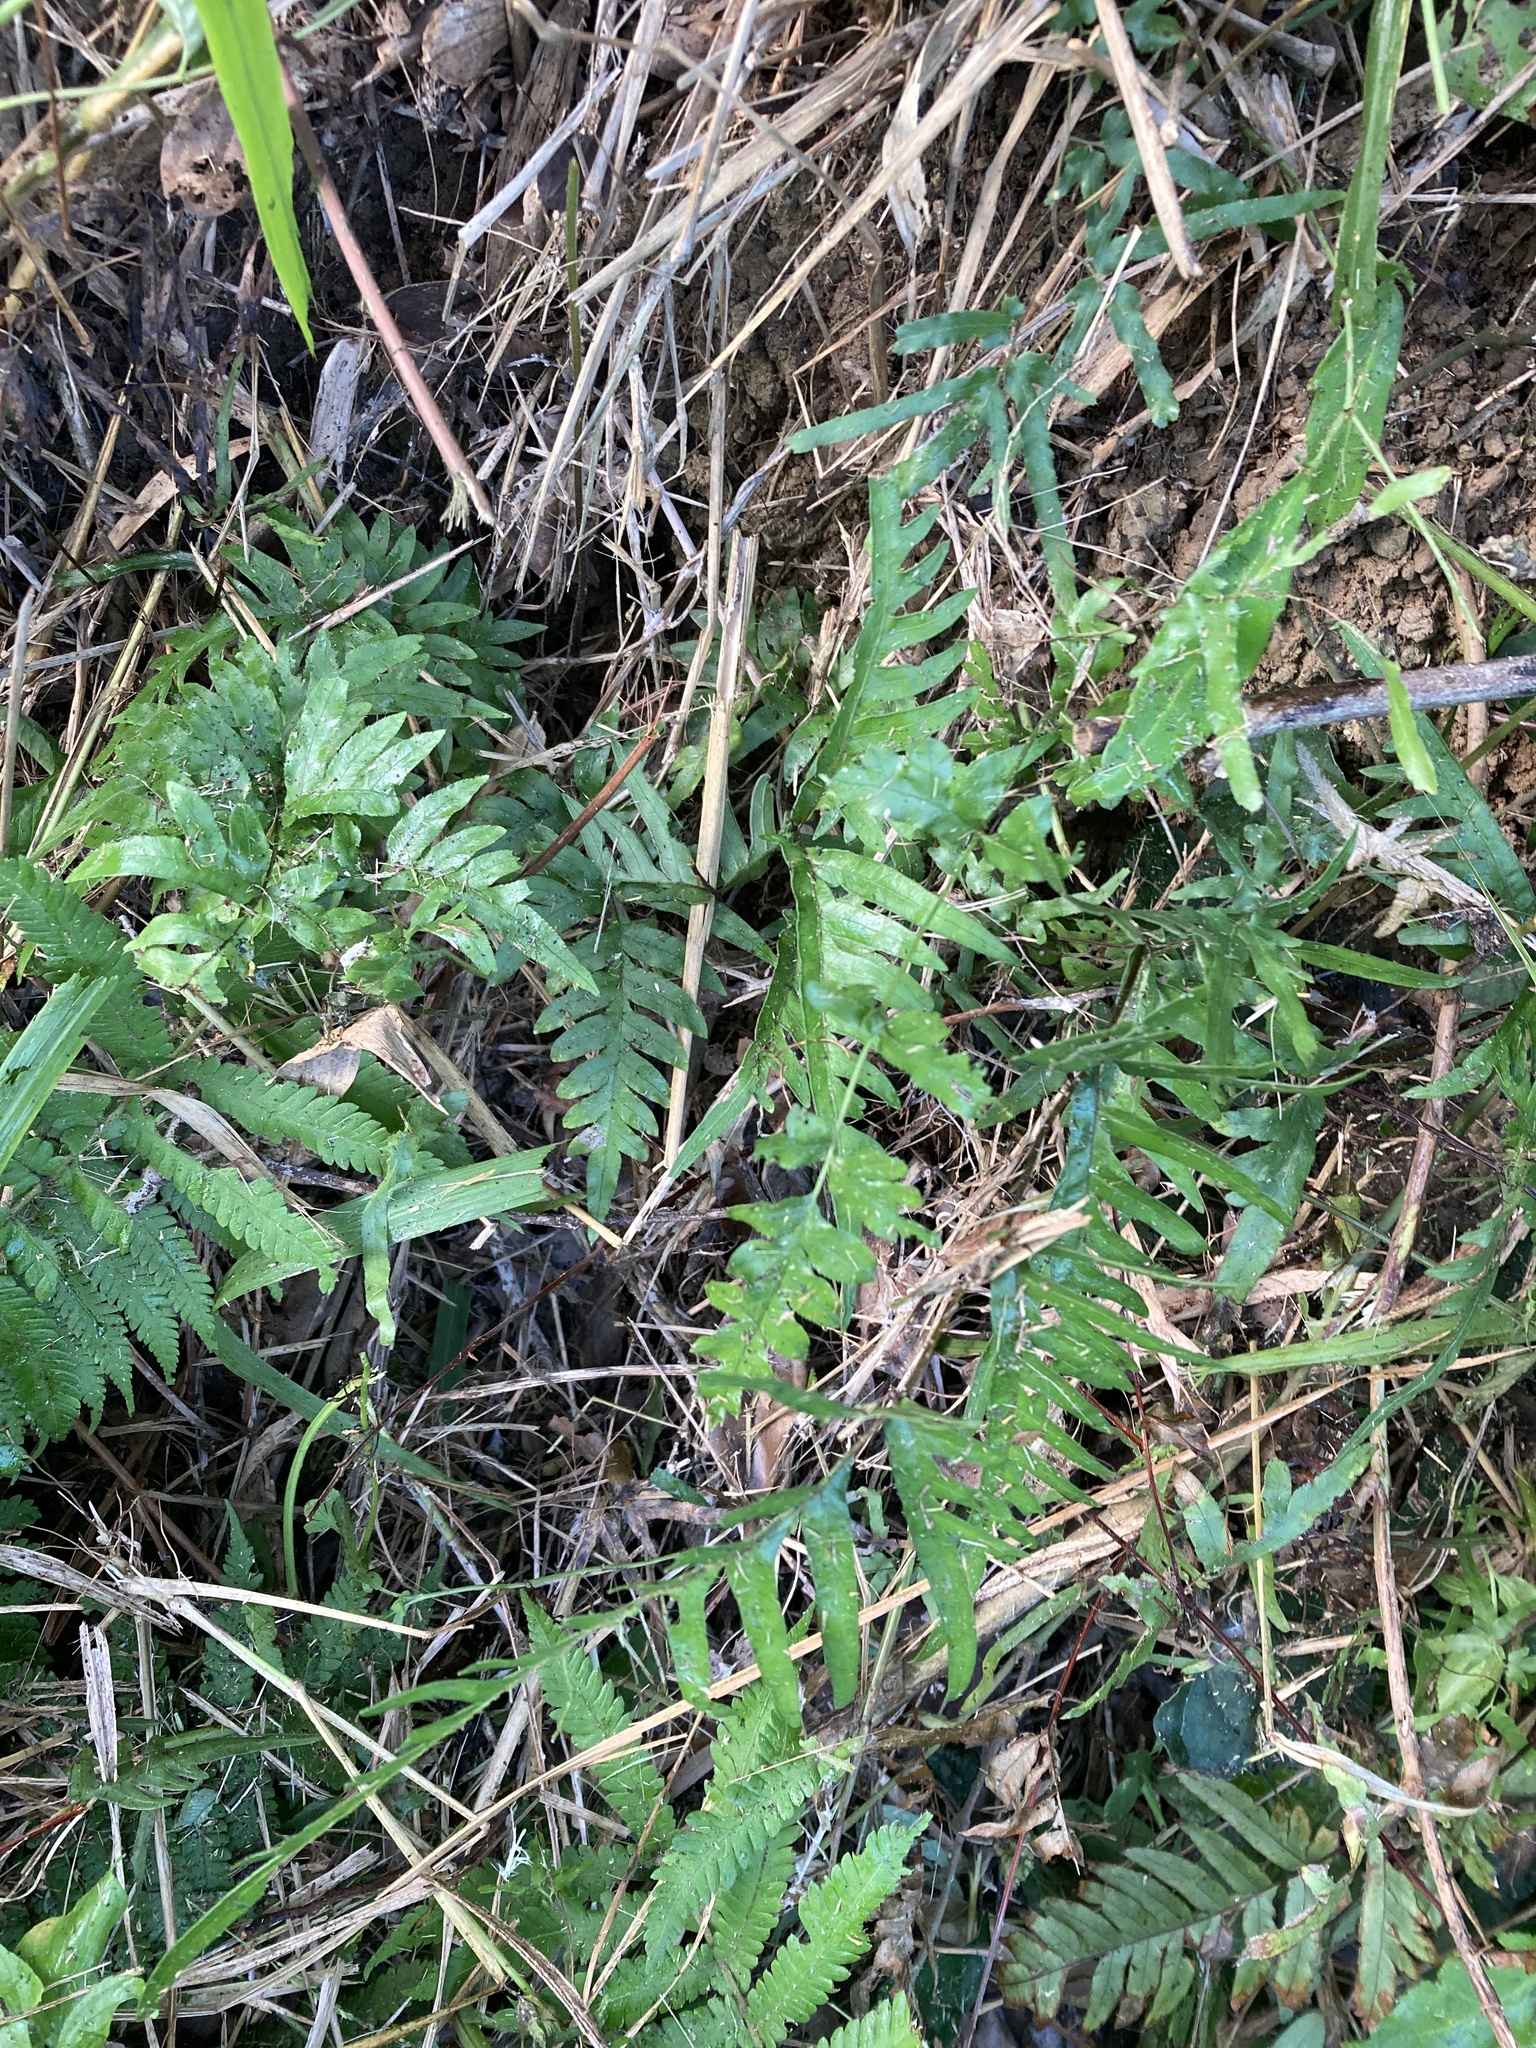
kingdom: Plantae
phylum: Tracheophyta
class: Polypodiopsida
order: Polypodiales
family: Pteridaceae
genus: Pteris
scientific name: Pteris semipinnata
